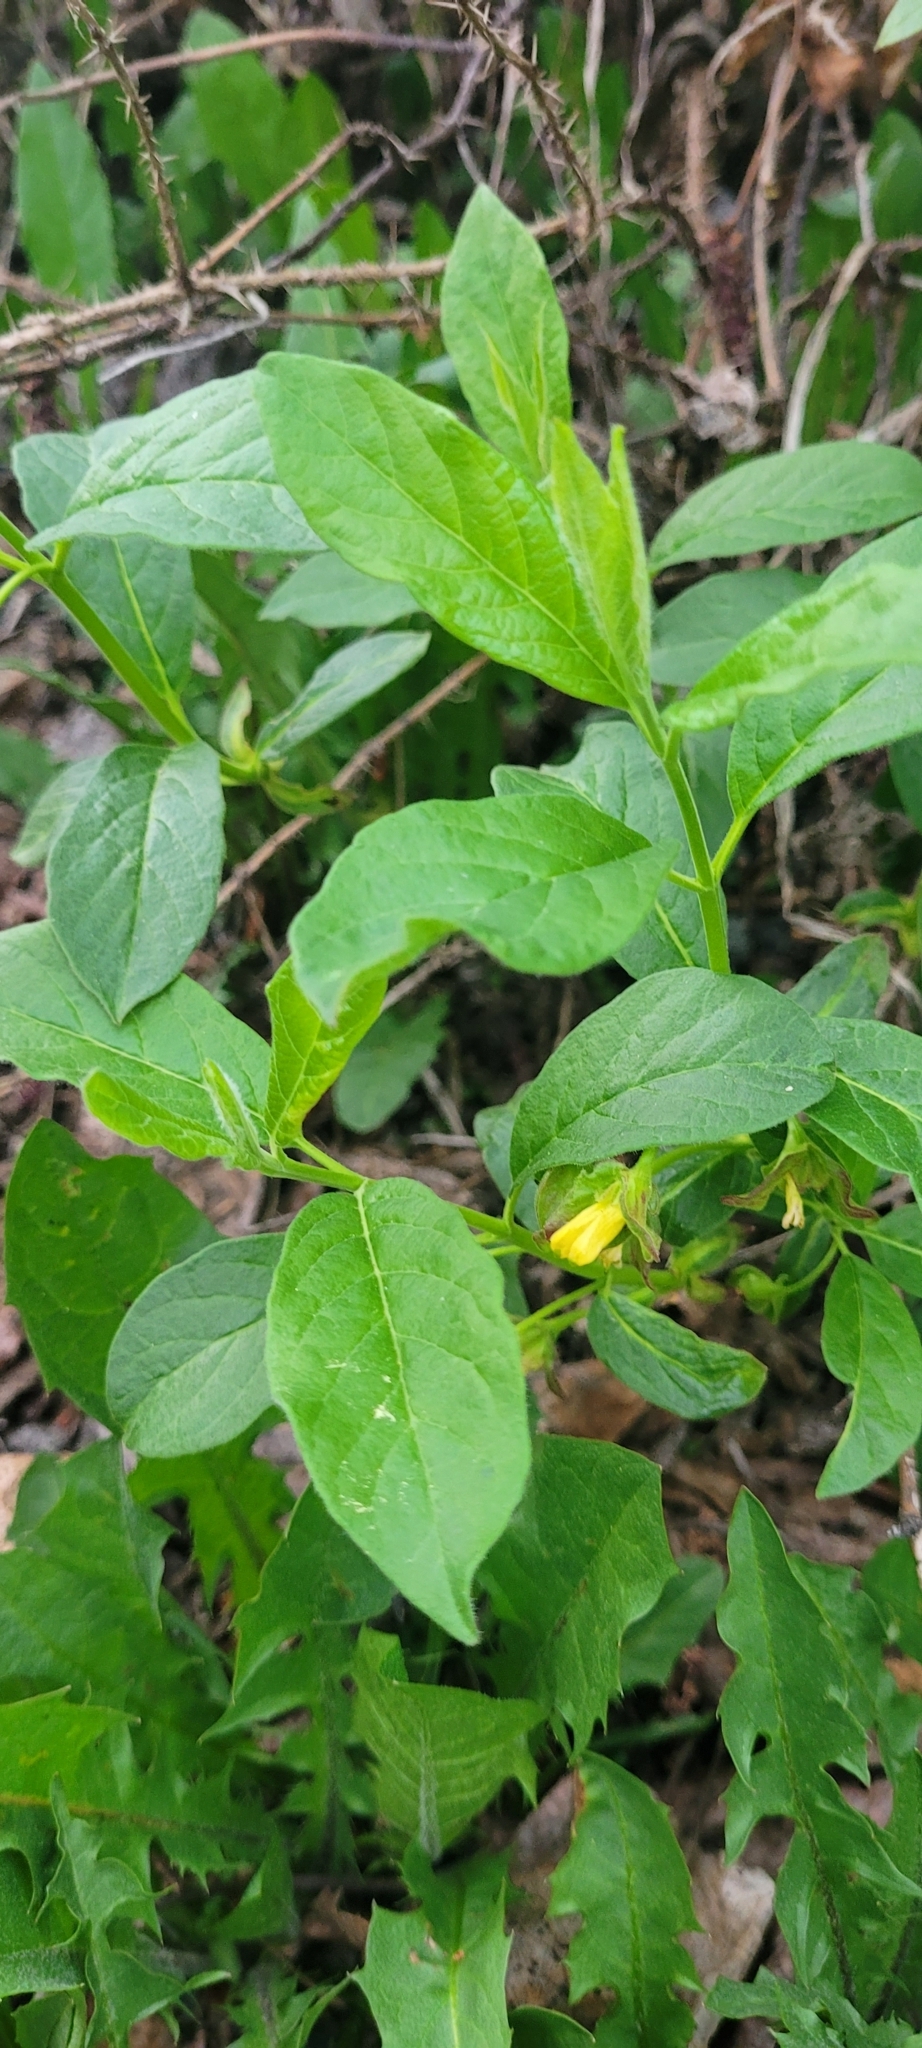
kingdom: Plantae
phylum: Tracheophyta
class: Magnoliopsida
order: Dipsacales
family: Caprifoliaceae
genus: Lonicera
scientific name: Lonicera involucrata
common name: Californian honeysuckle
